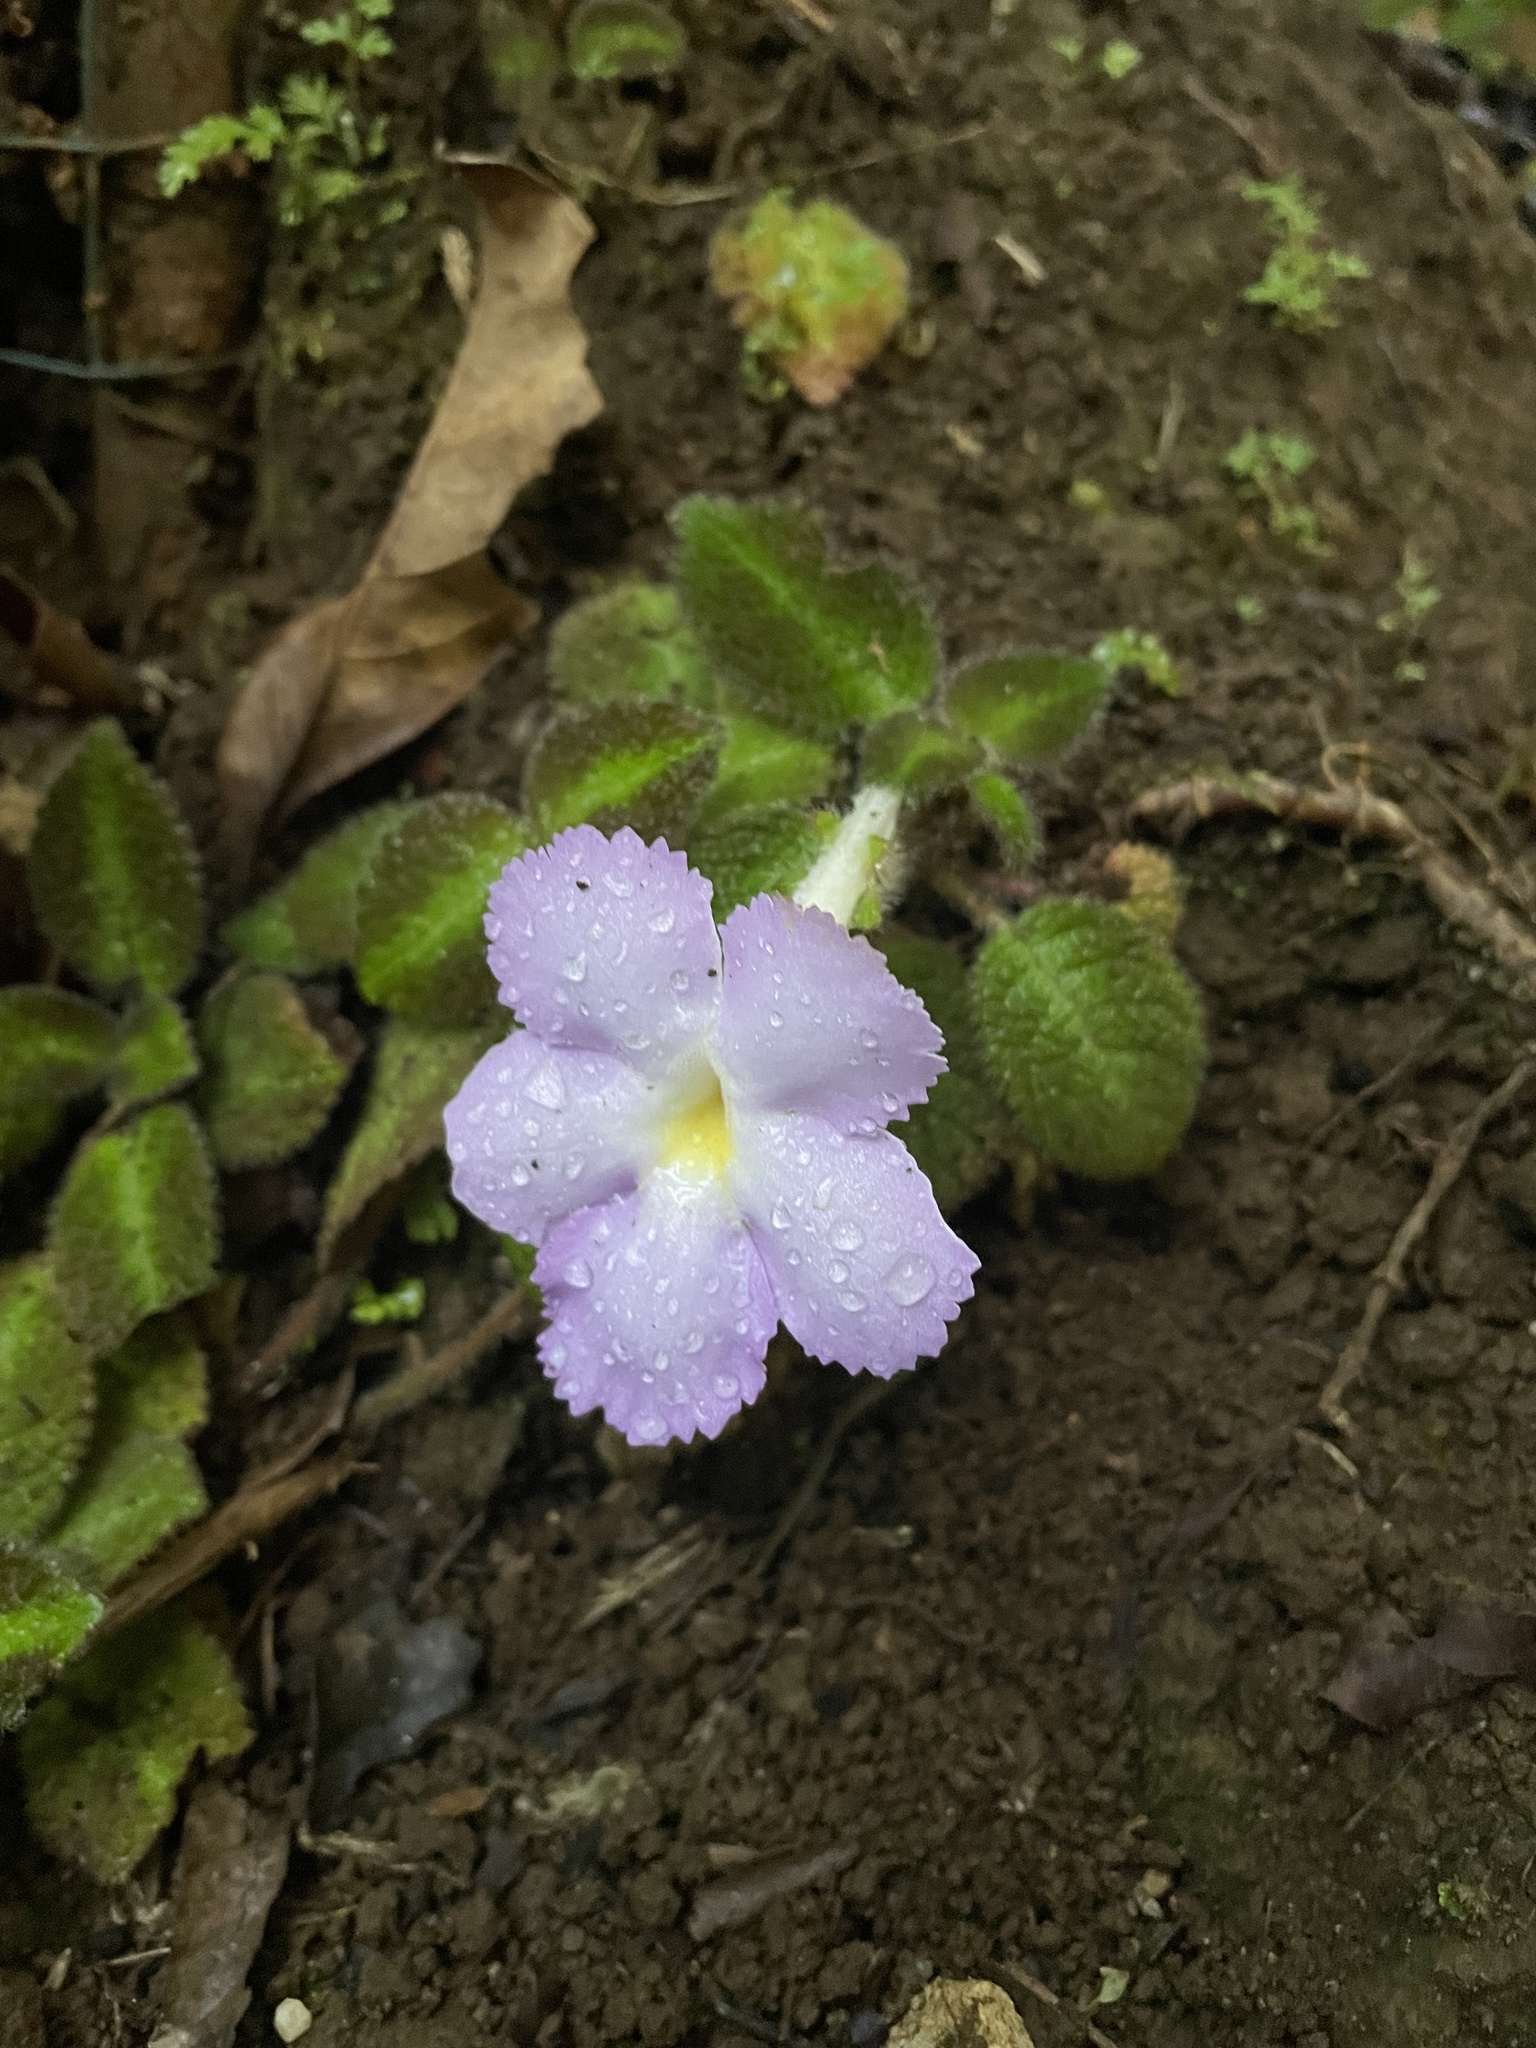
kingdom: Plantae
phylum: Tracheophyta
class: Magnoliopsida
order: Lamiales
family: Gesneriaceae
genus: Episcia
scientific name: Episcia lilacina
